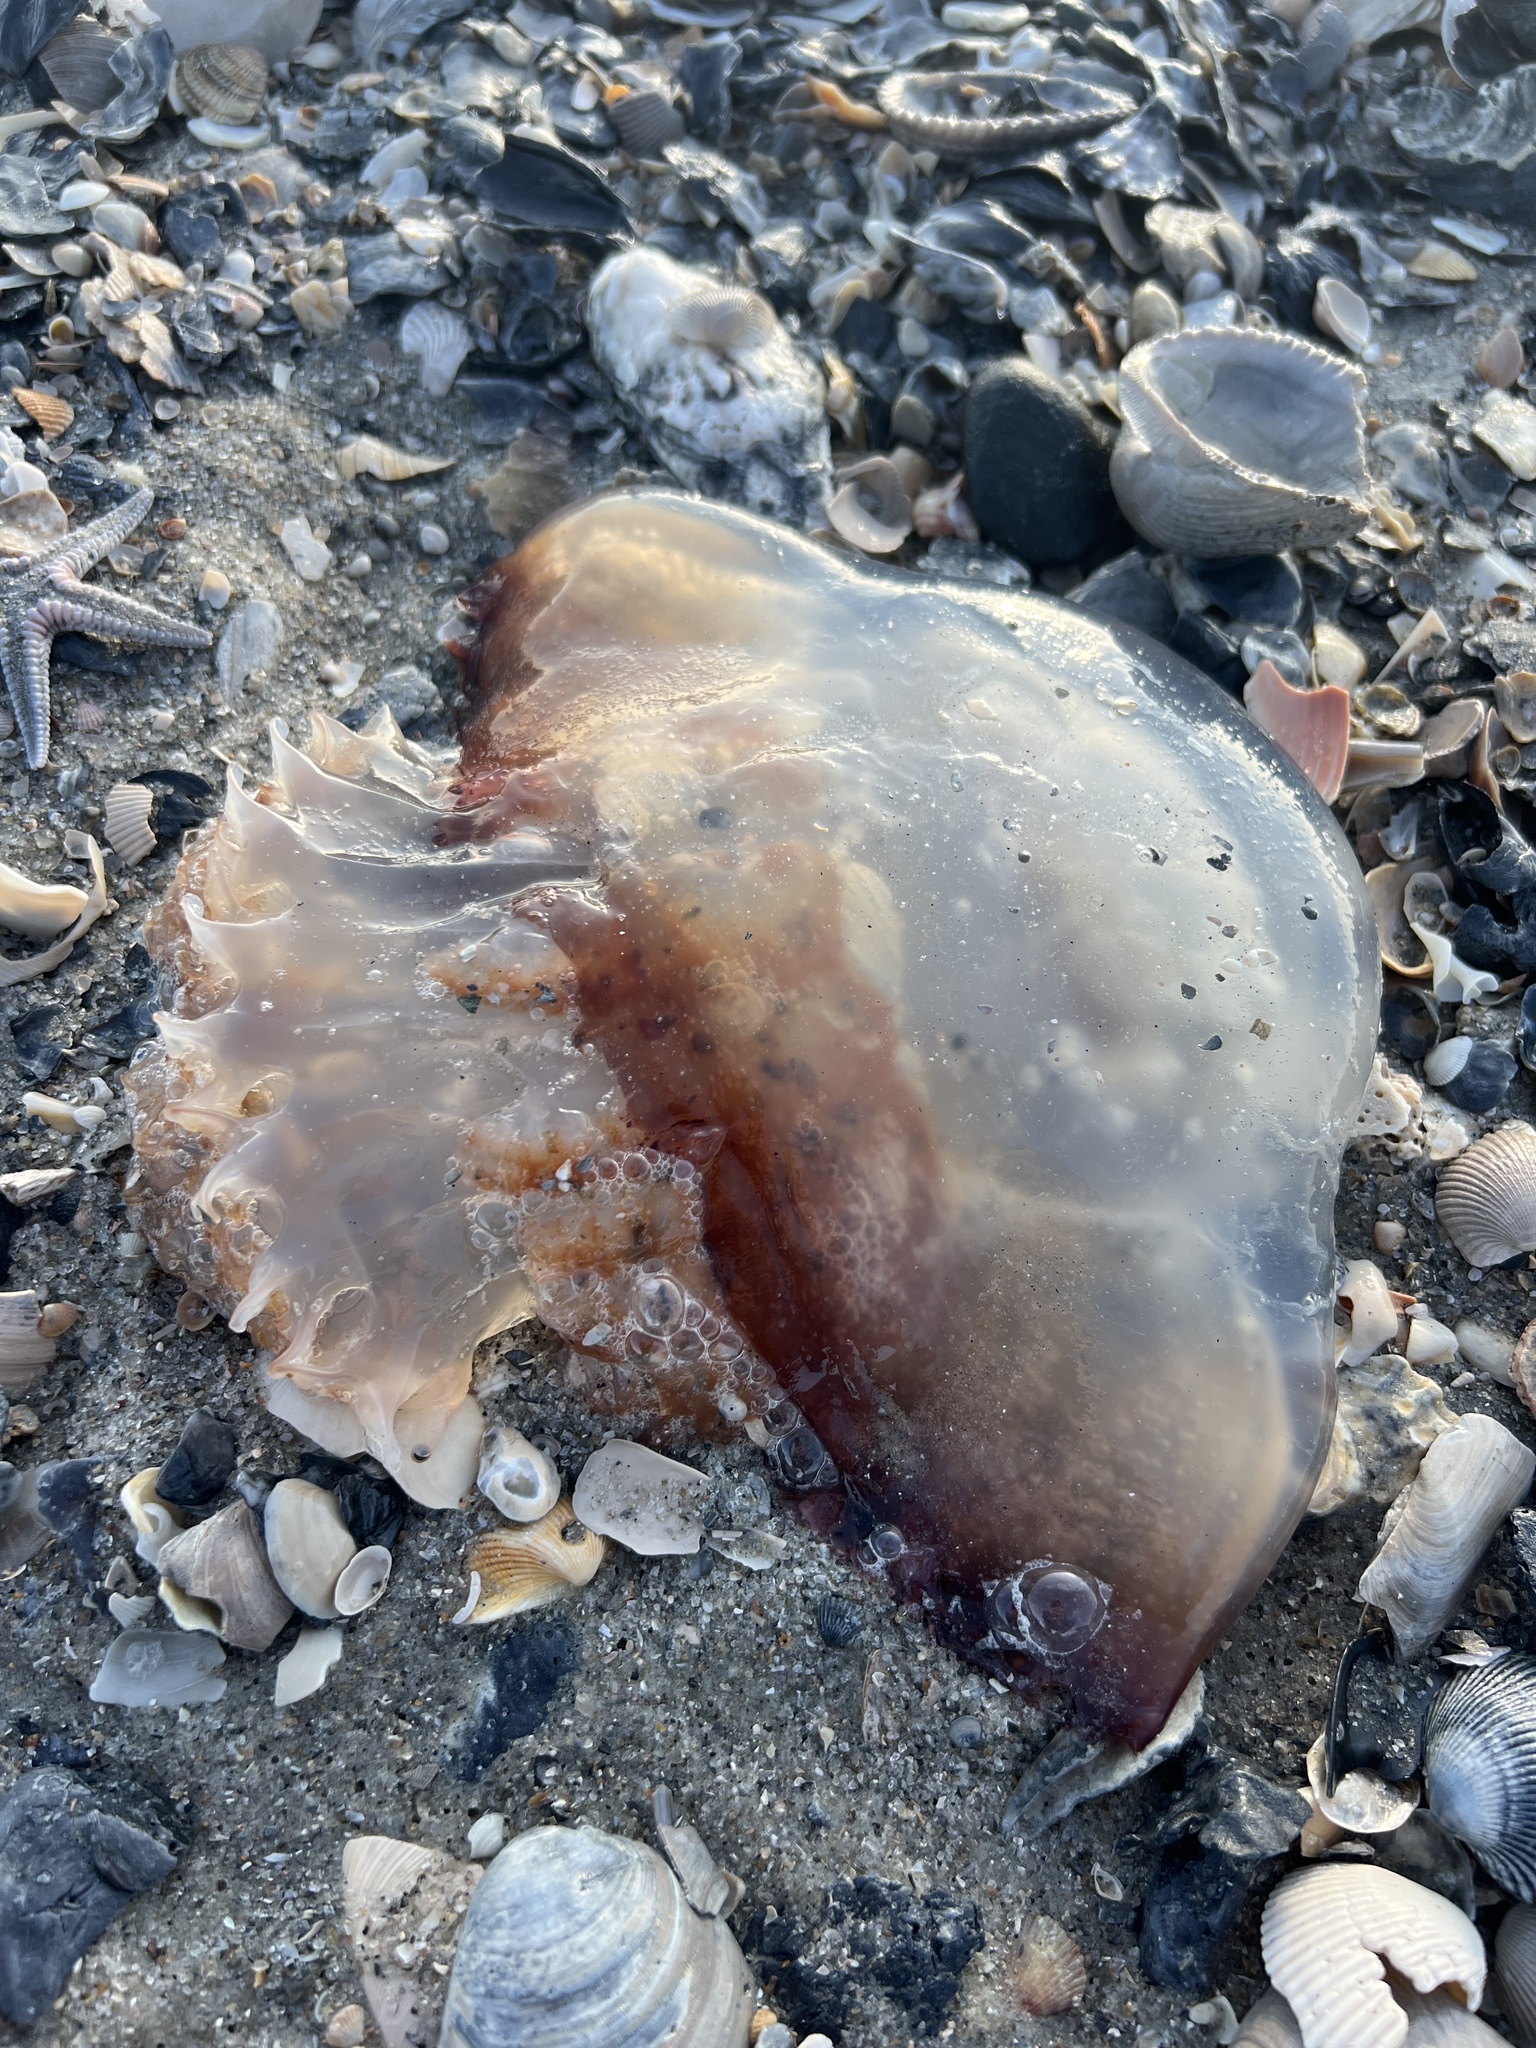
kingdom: Animalia
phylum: Cnidaria
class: Scyphozoa
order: Rhizostomeae
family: Stomolophidae
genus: Stomolophus
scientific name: Stomolophus meleagris
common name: Cabbagehead
